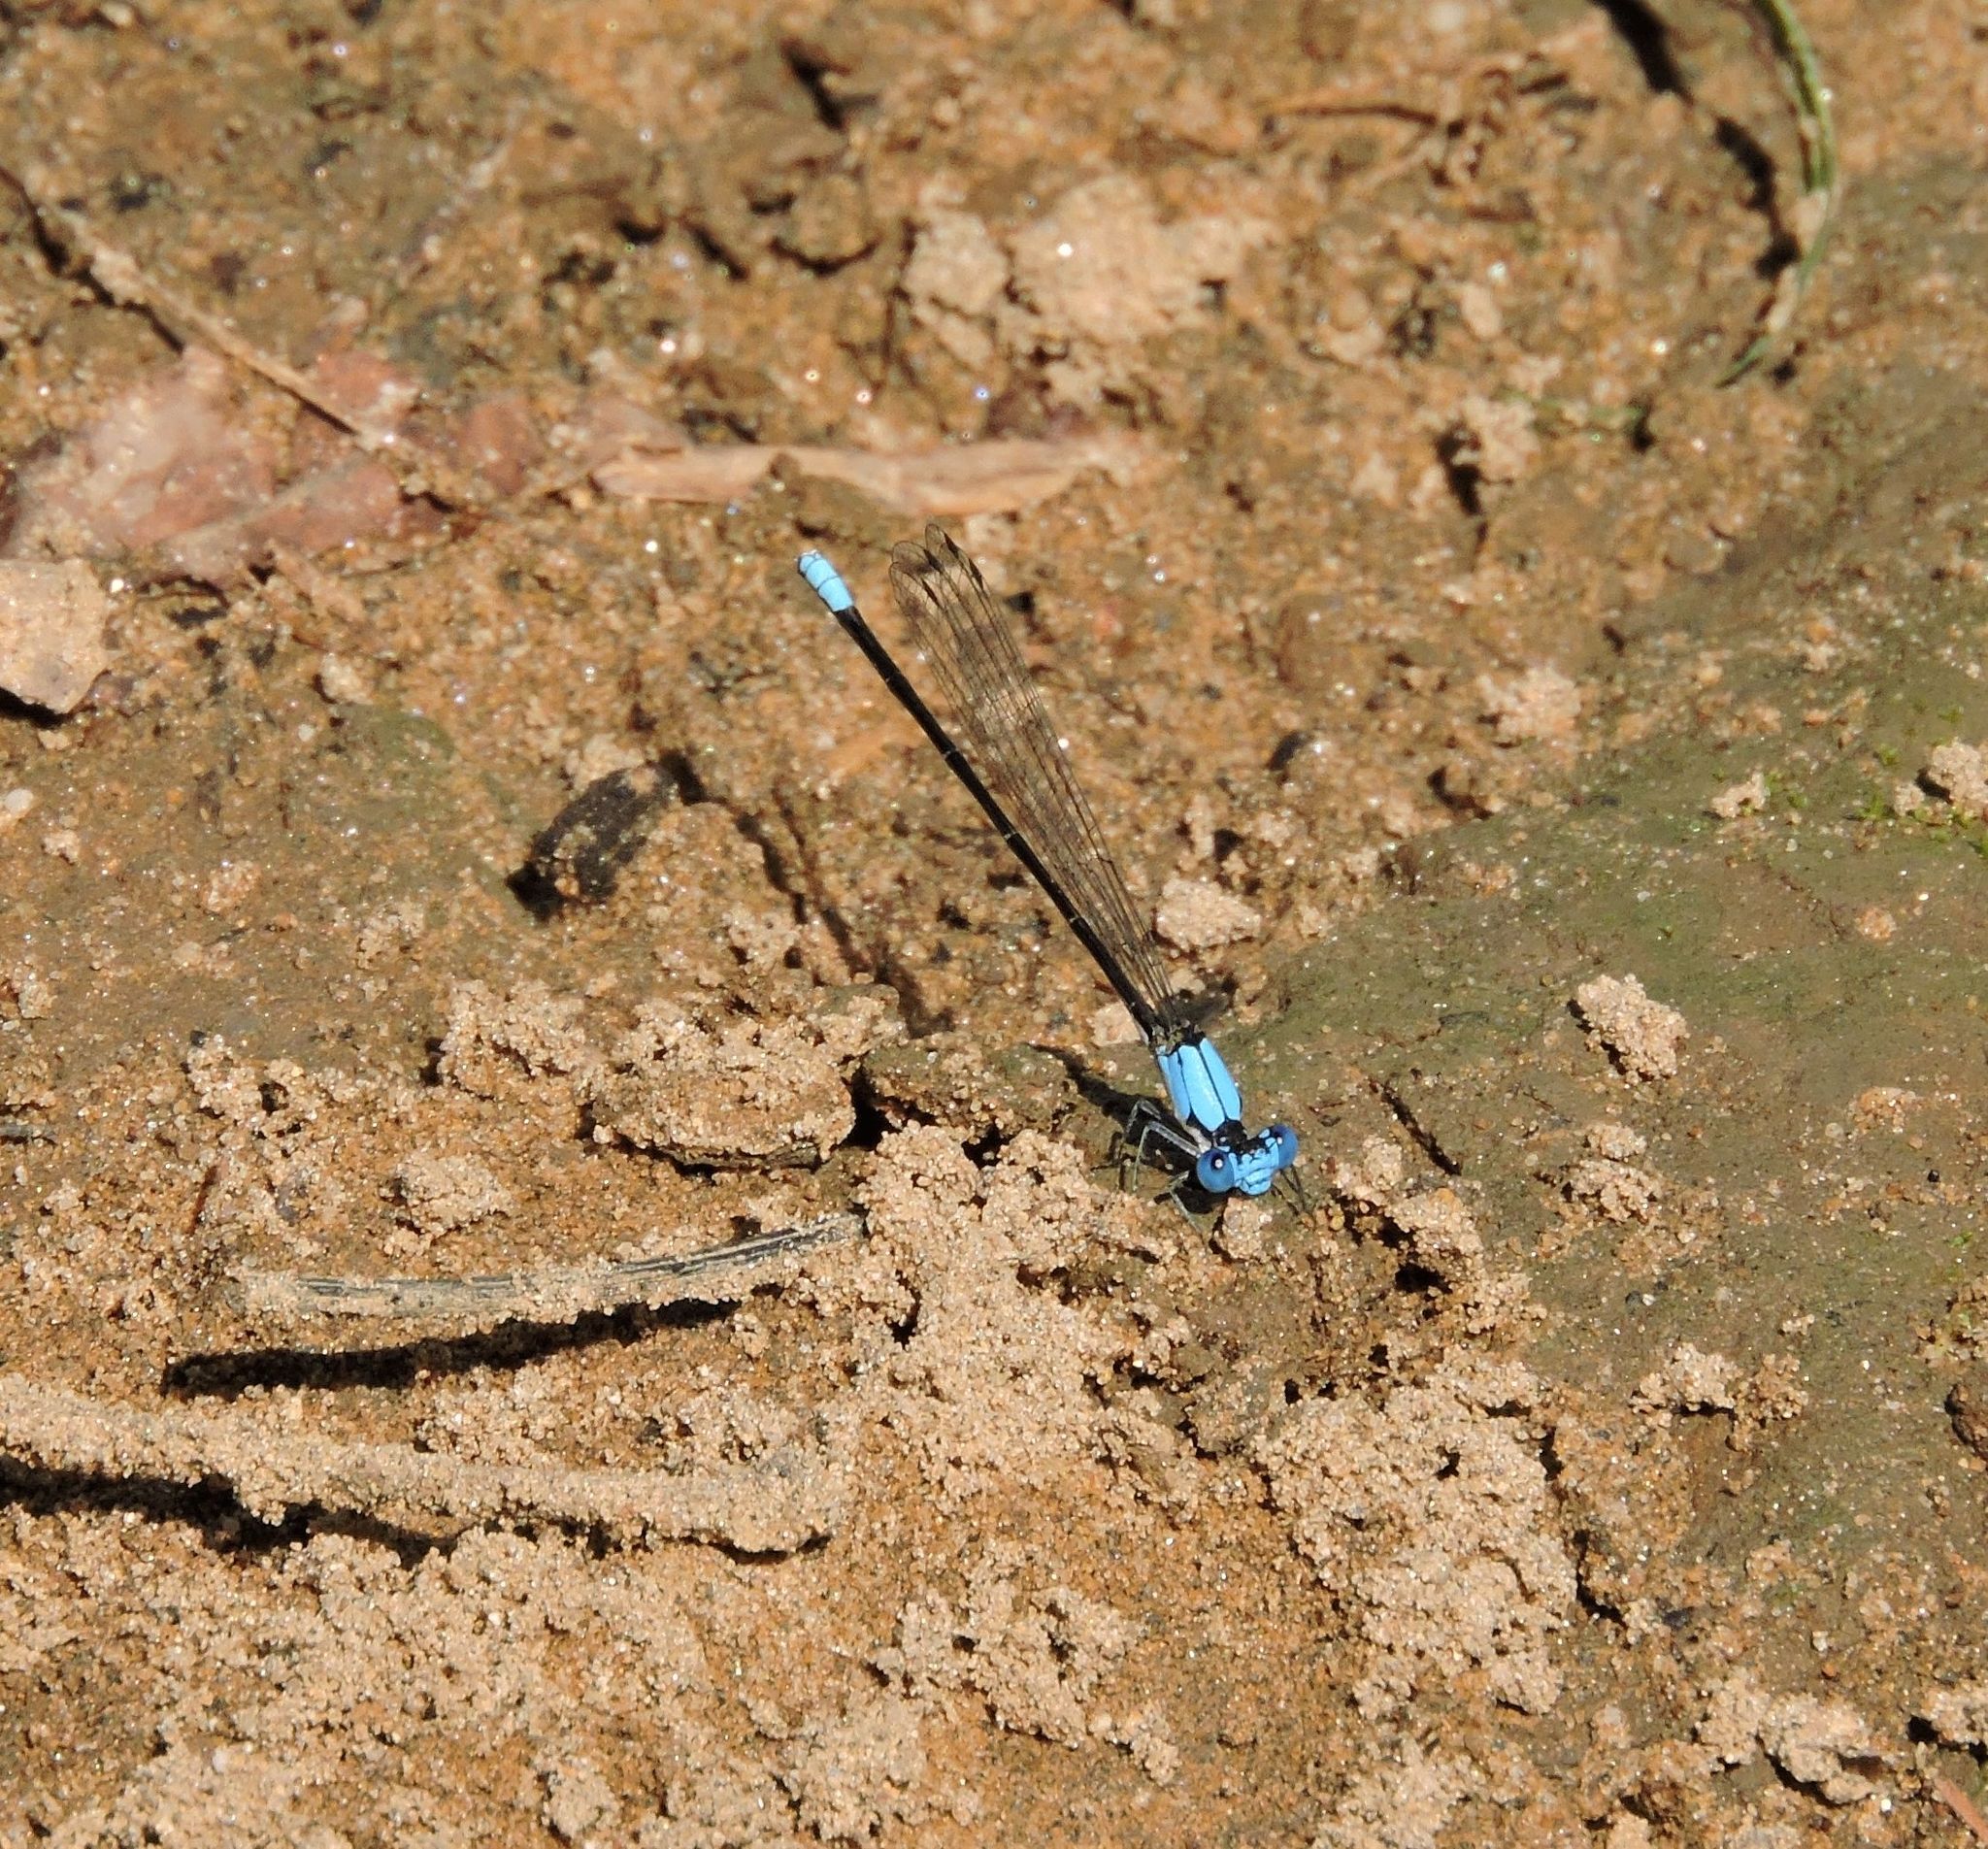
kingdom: Animalia
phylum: Arthropoda
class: Insecta
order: Odonata
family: Coenagrionidae
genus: Argia
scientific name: Argia apicalis
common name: Blue-fronted dancer
